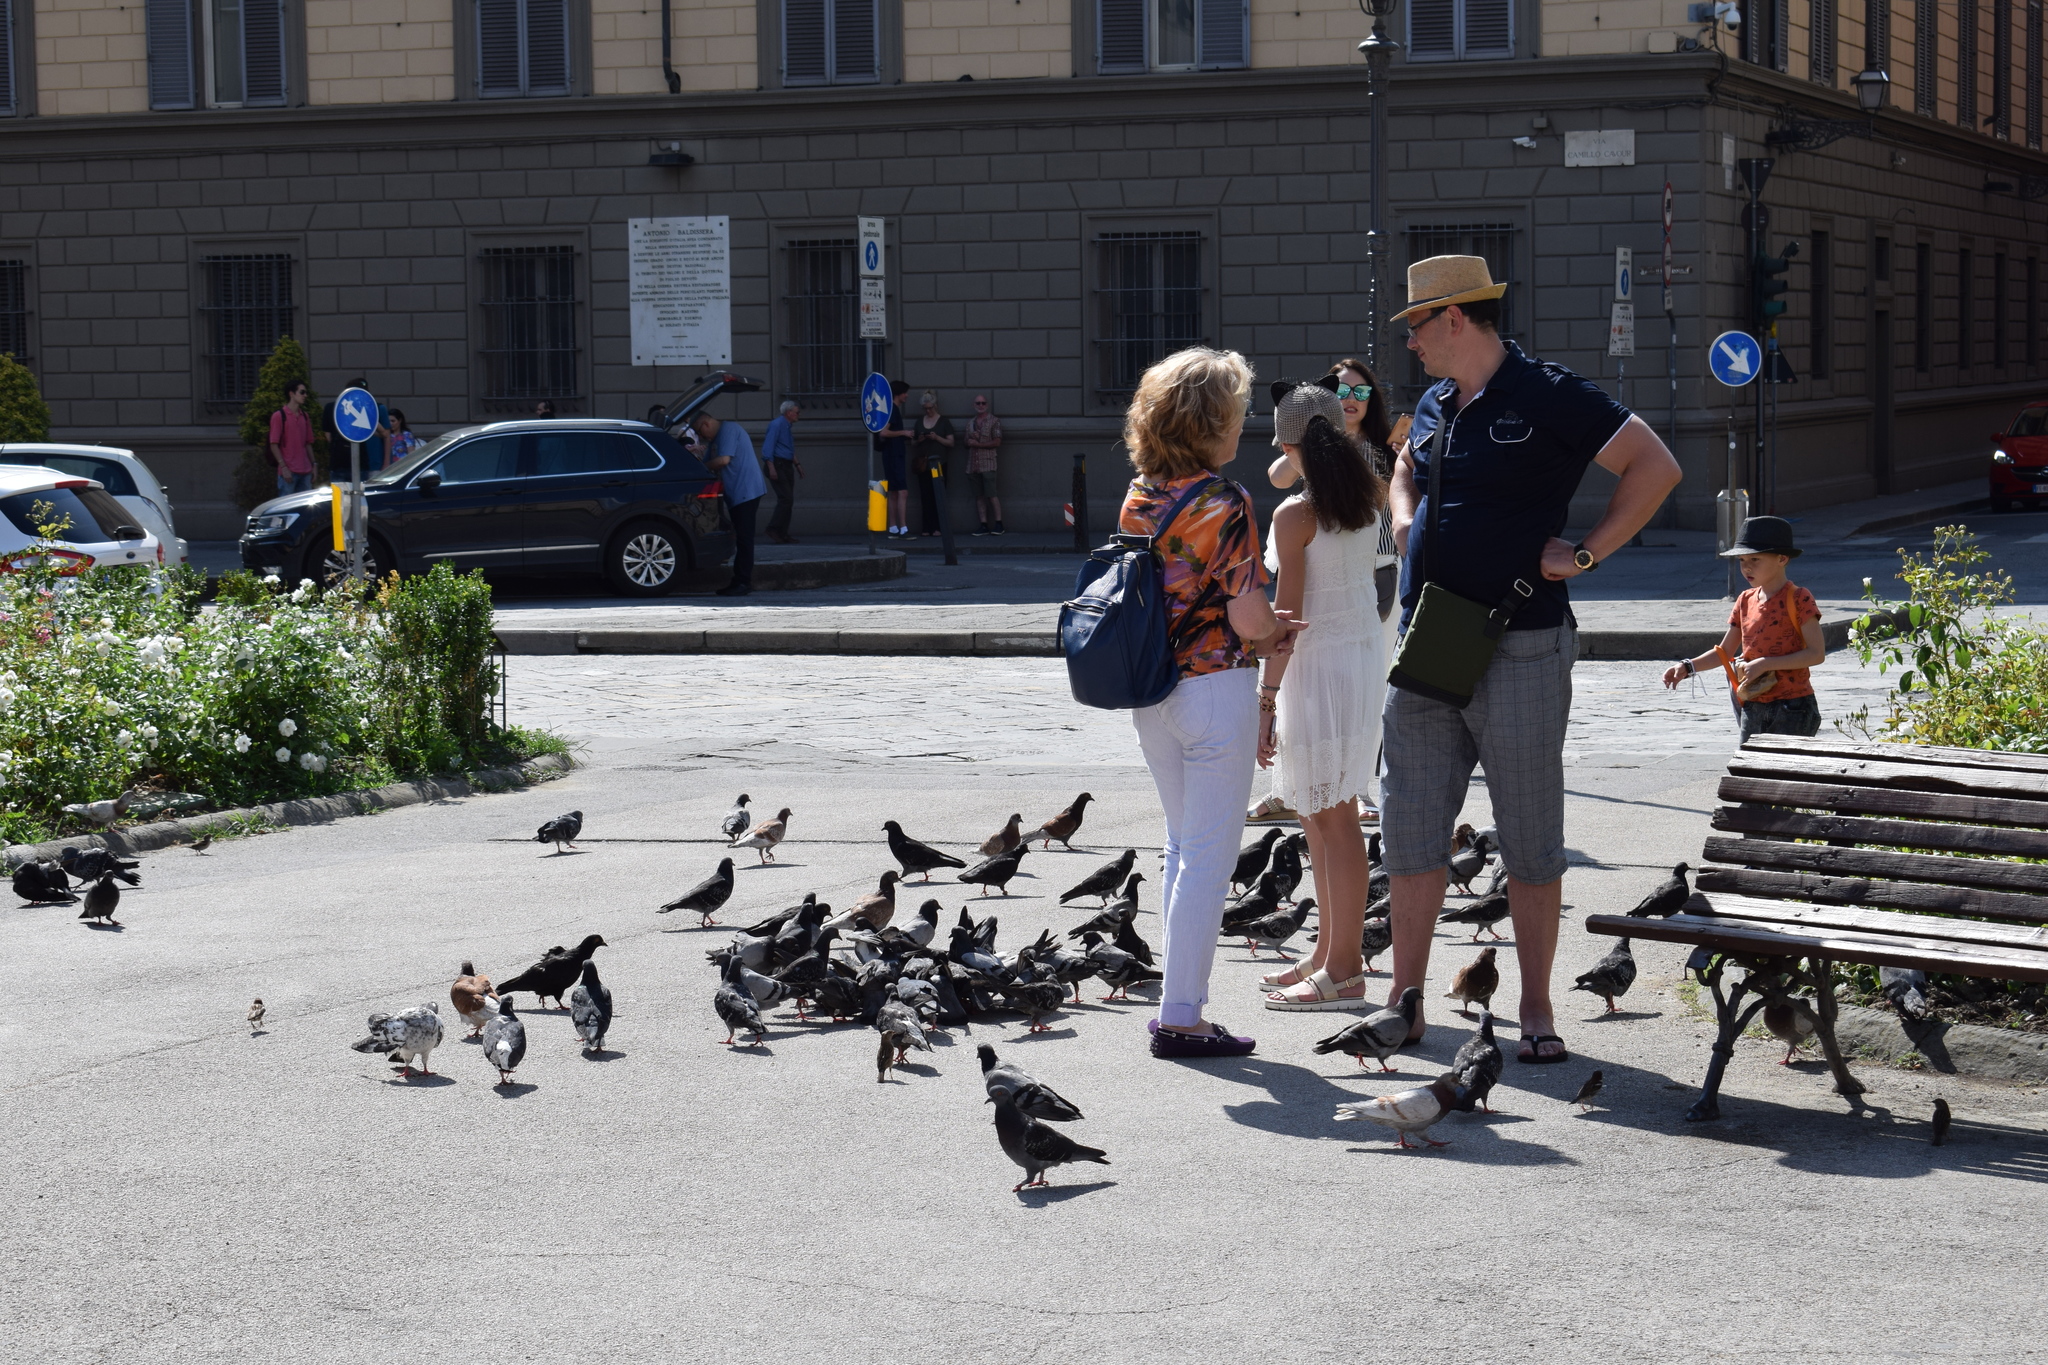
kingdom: Animalia
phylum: Chordata
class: Aves
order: Columbiformes
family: Columbidae
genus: Columba
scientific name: Columba livia
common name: Rock pigeon
